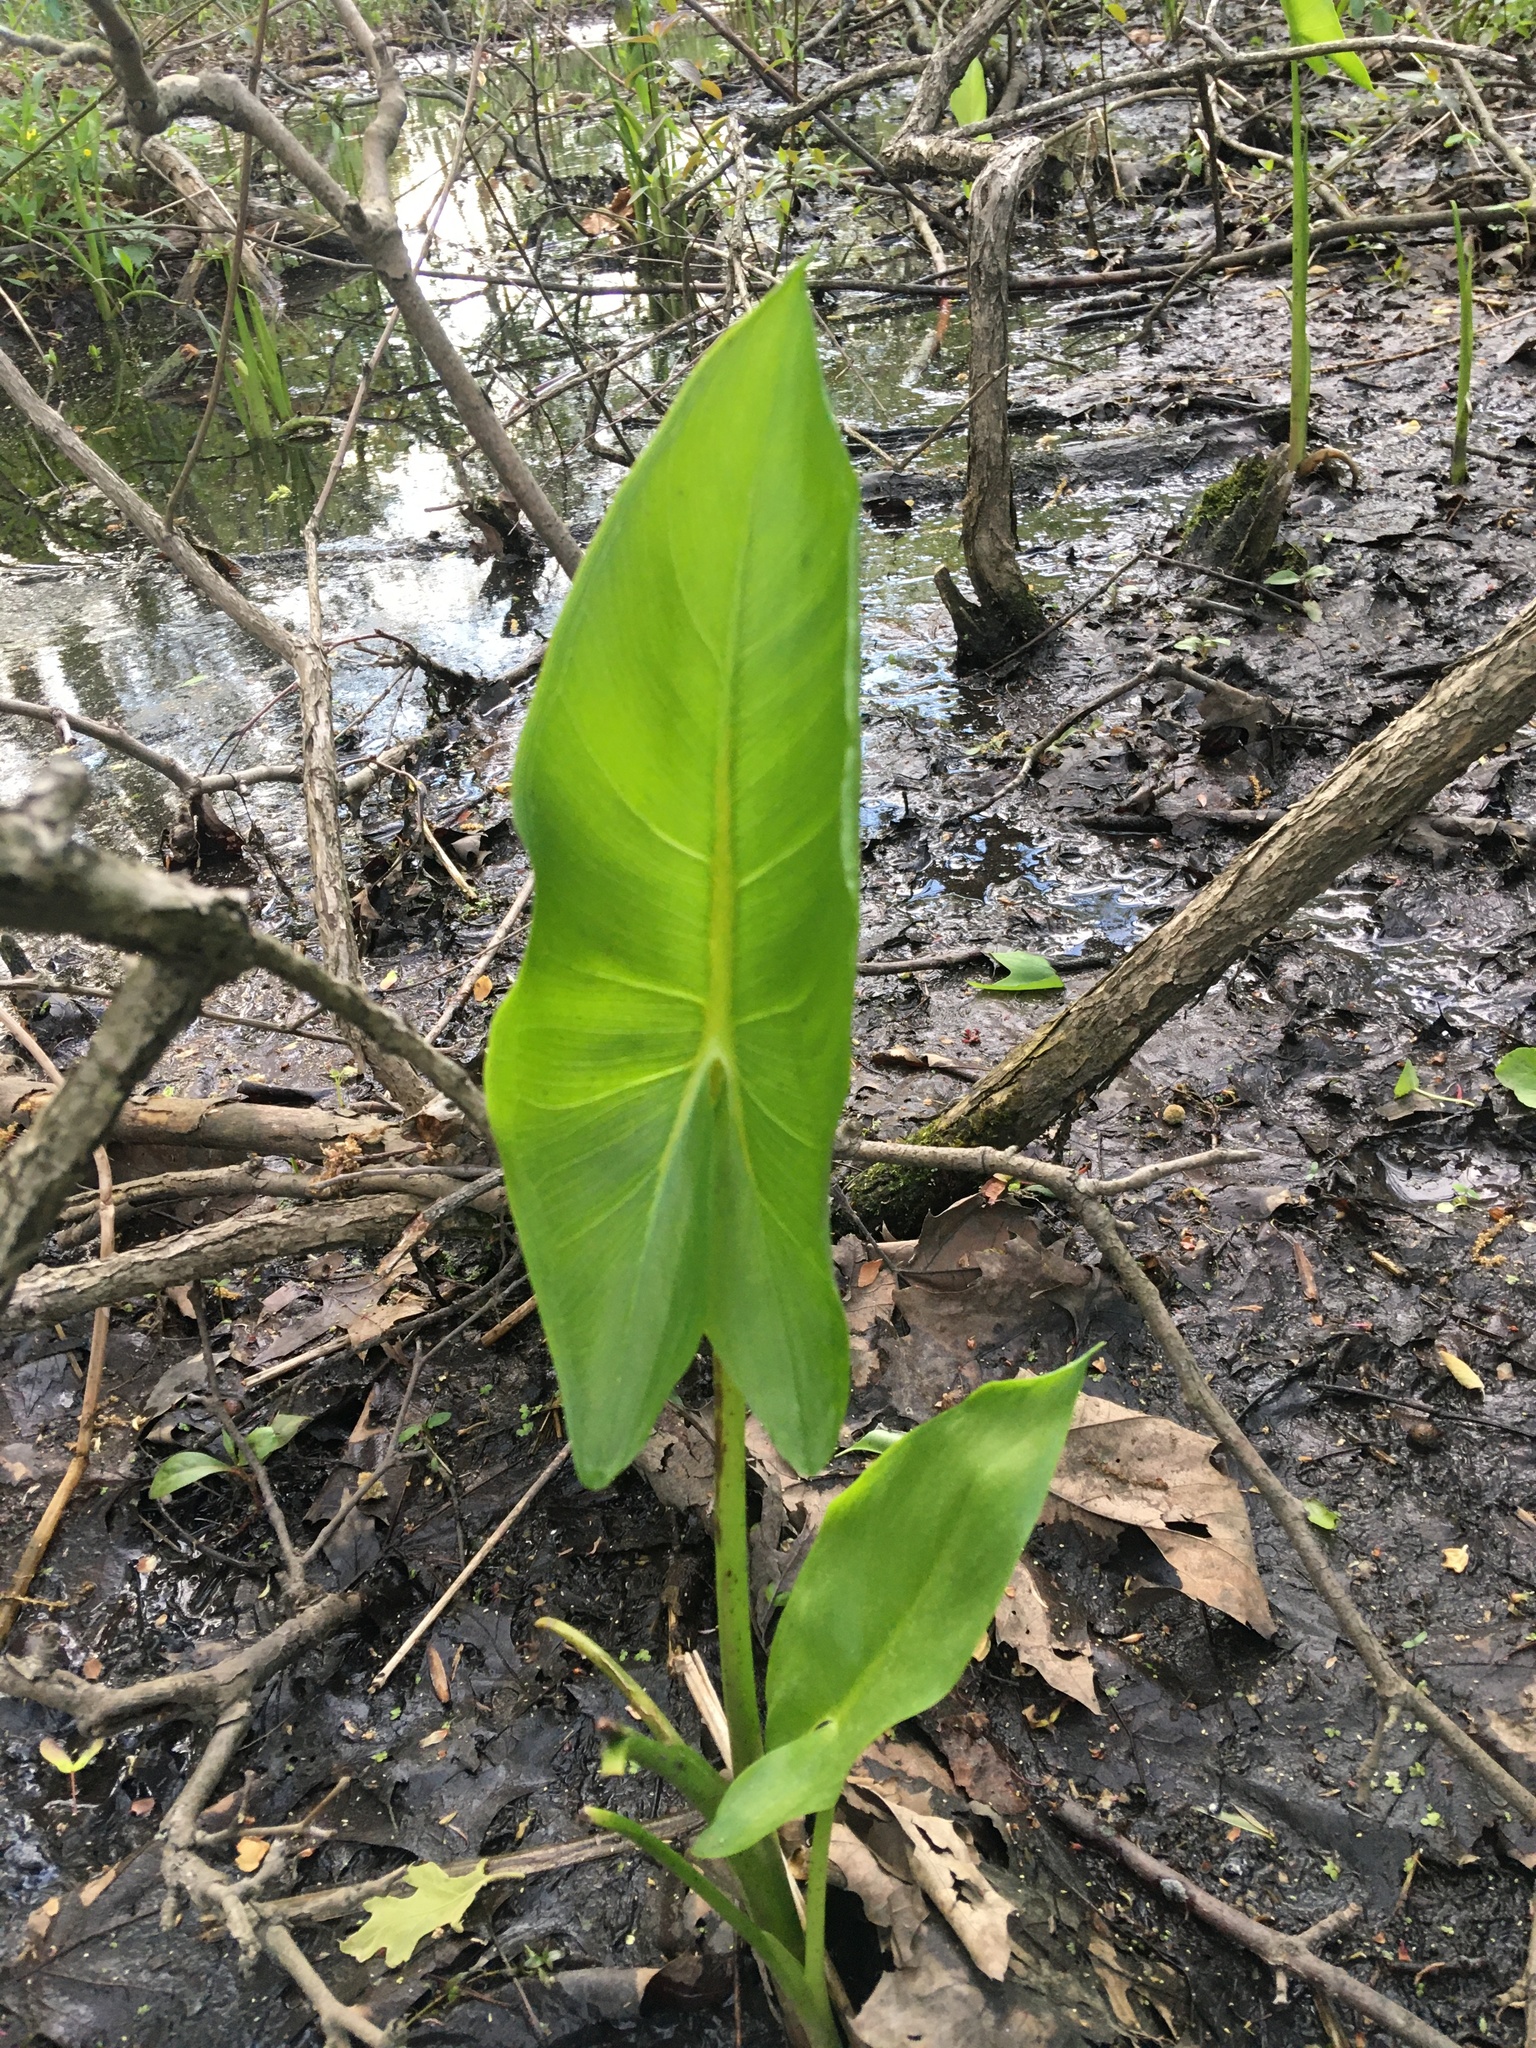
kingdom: Plantae
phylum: Tracheophyta
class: Liliopsida
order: Alismatales
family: Araceae
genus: Peltandra
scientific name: Peltandra virginica
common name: Arrow arum
